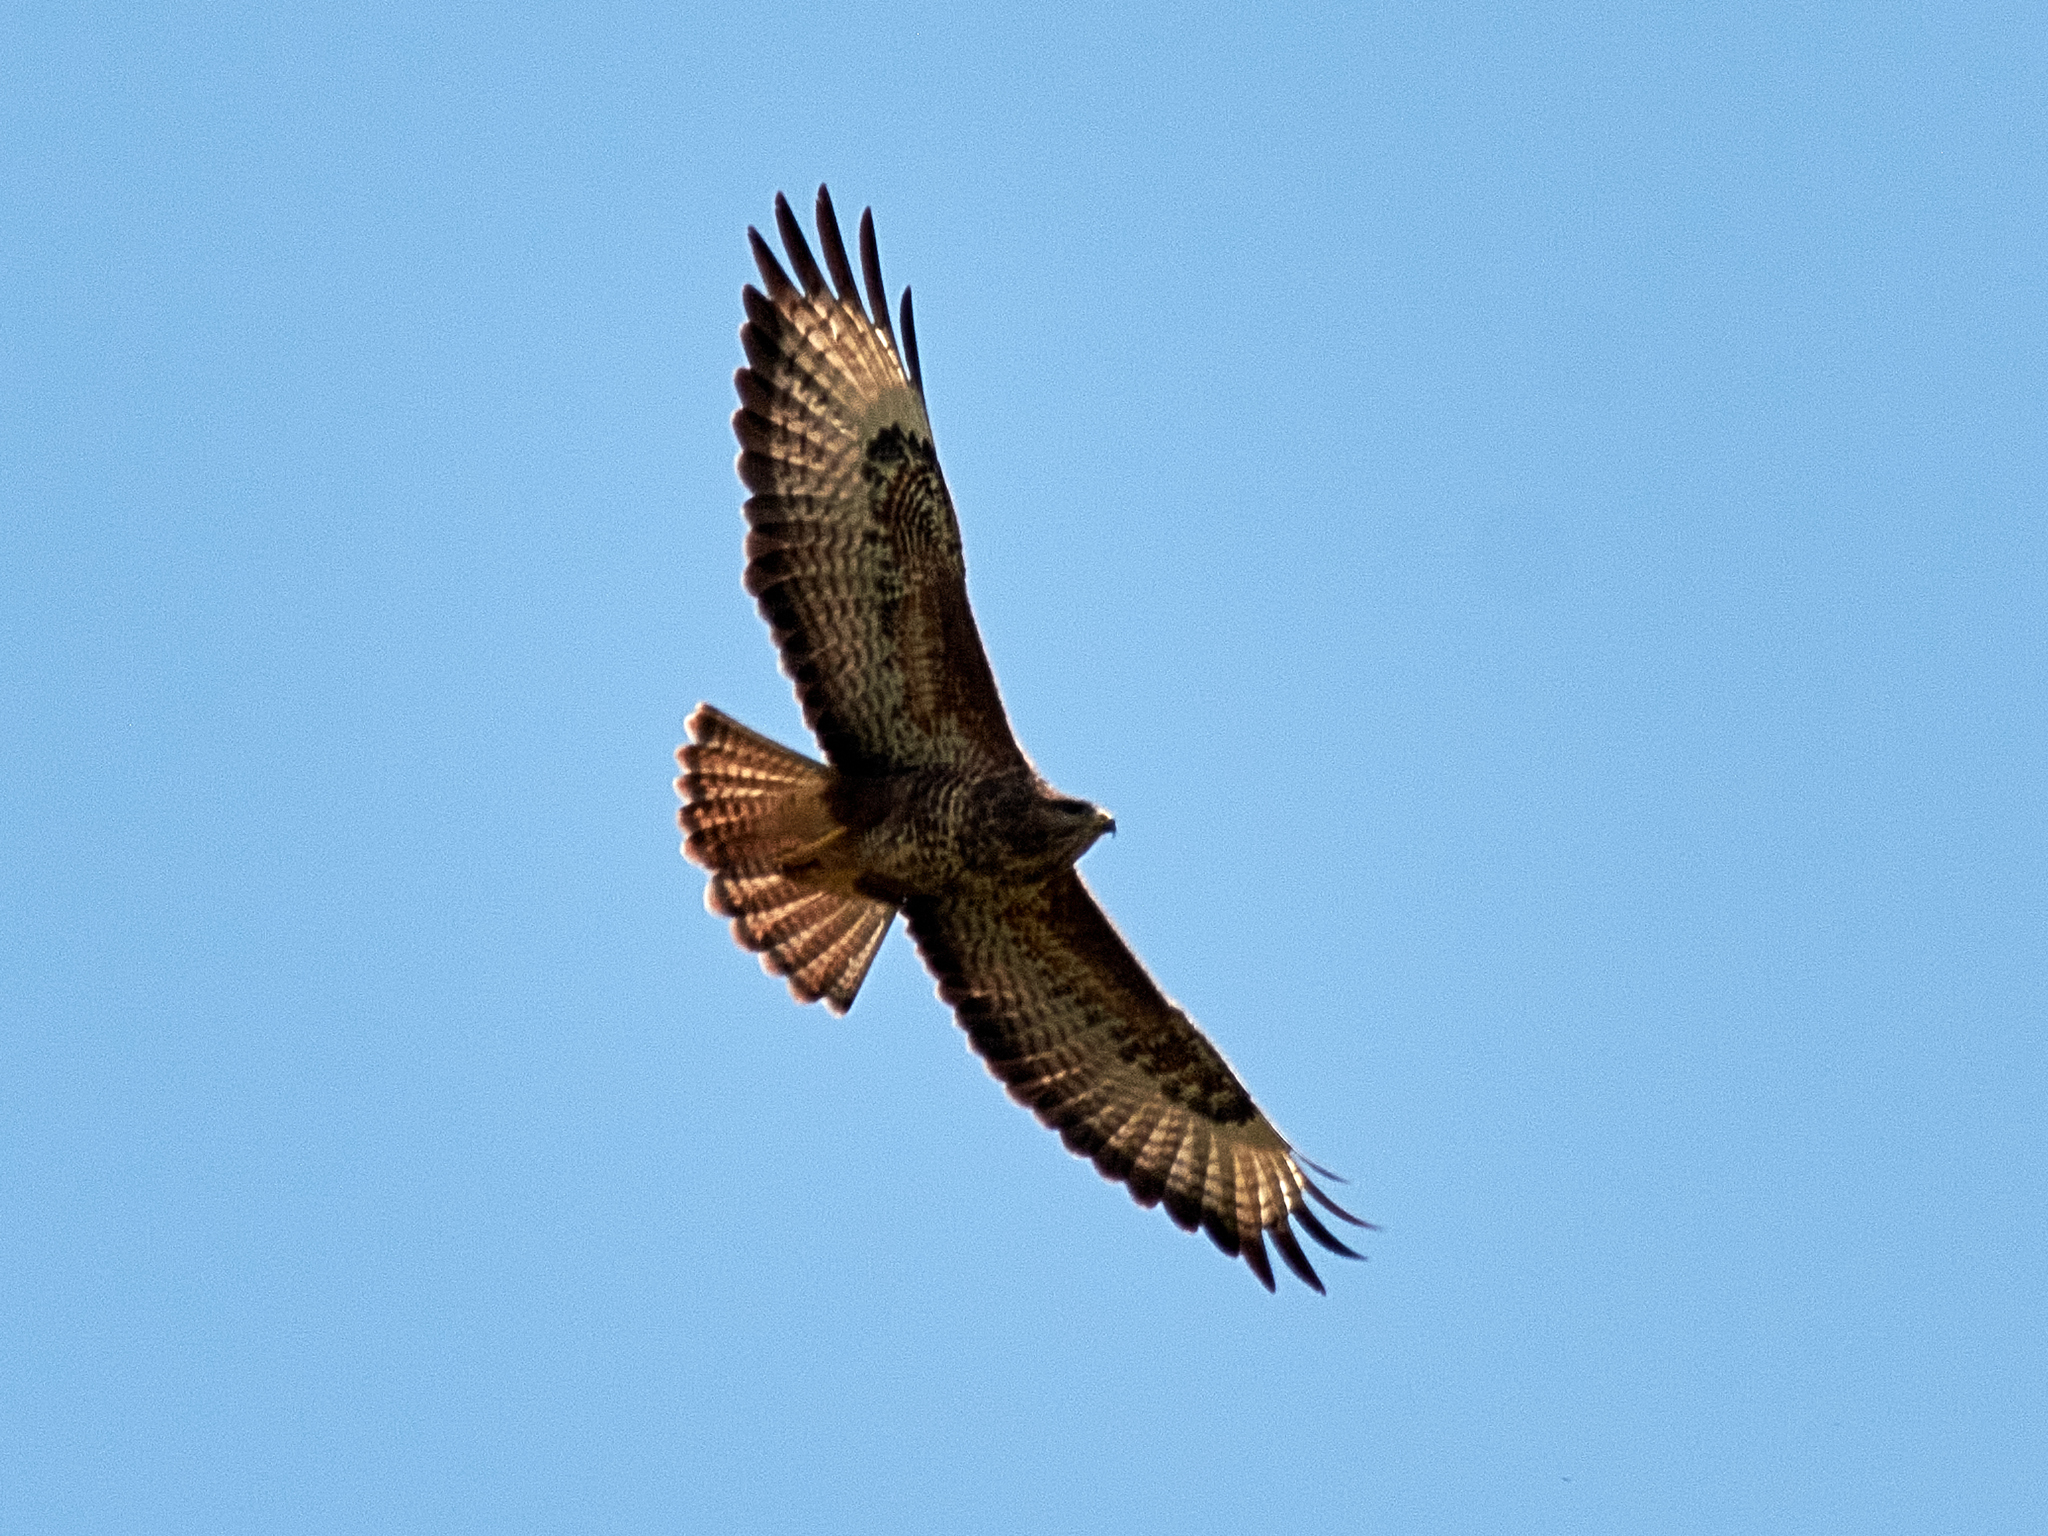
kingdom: Animalia
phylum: Chordata
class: Aves
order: Accipitriformes
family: Accipitridae
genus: Buteo
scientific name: Buteo buteo
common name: Common buzzard
